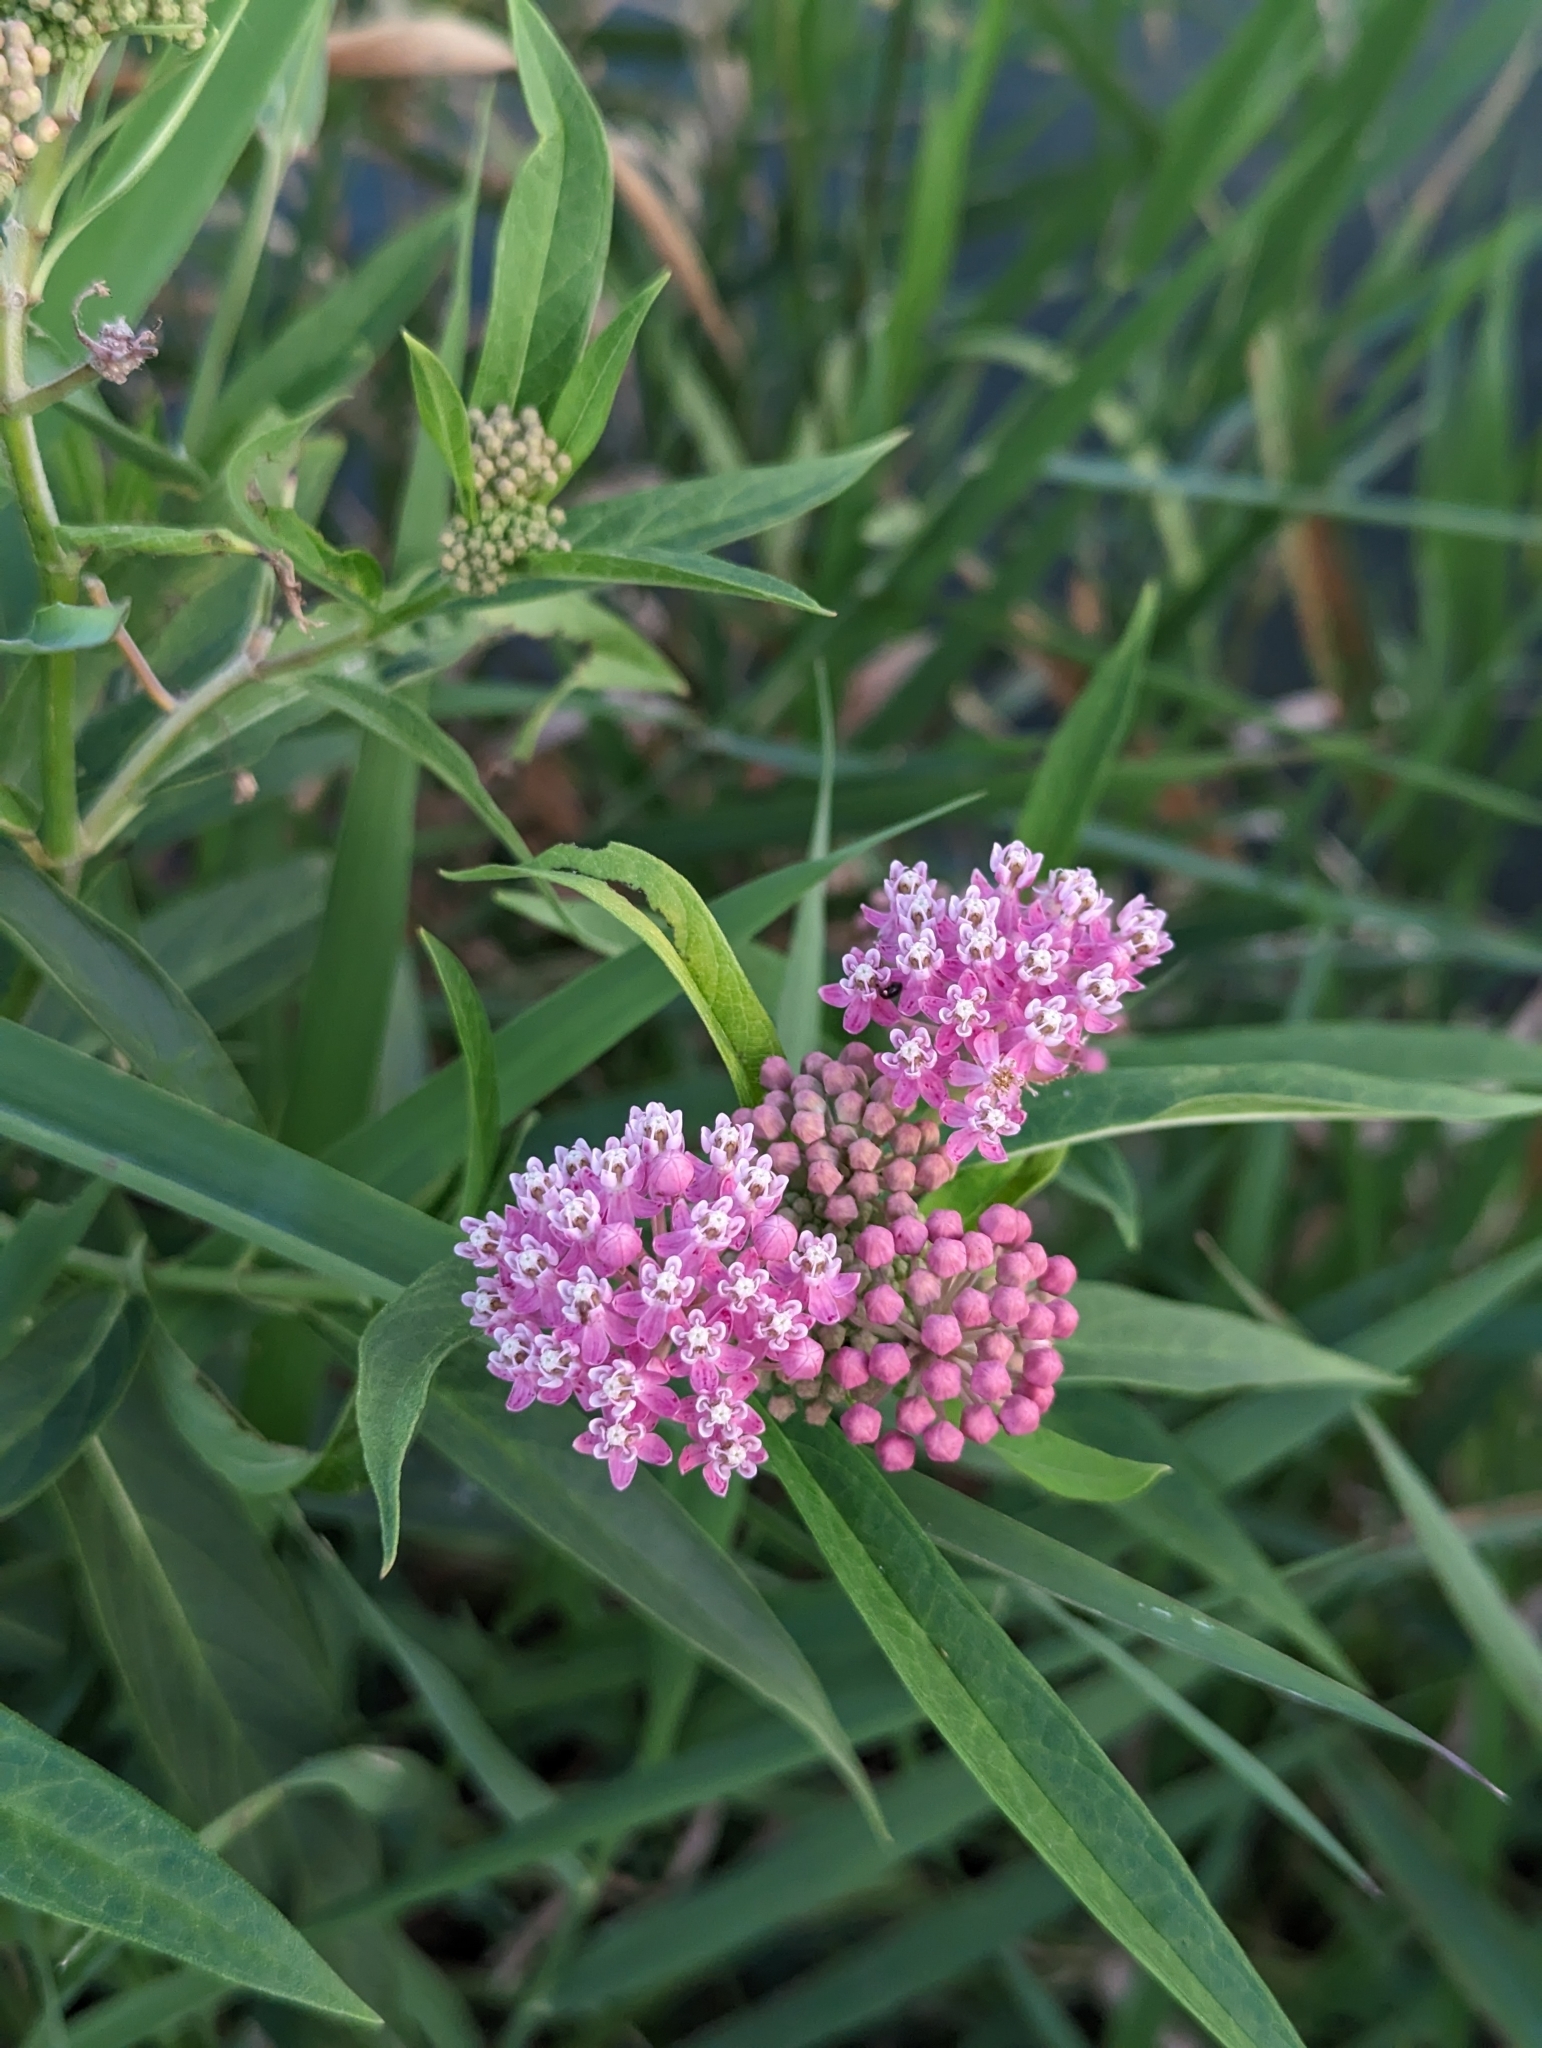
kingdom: Plantae
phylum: Tracheophyta
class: Magnoliopsida
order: Gentianales
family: Apocynaceae
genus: Asclepias
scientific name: Asclepias incarnata
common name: Swamp milkweed
